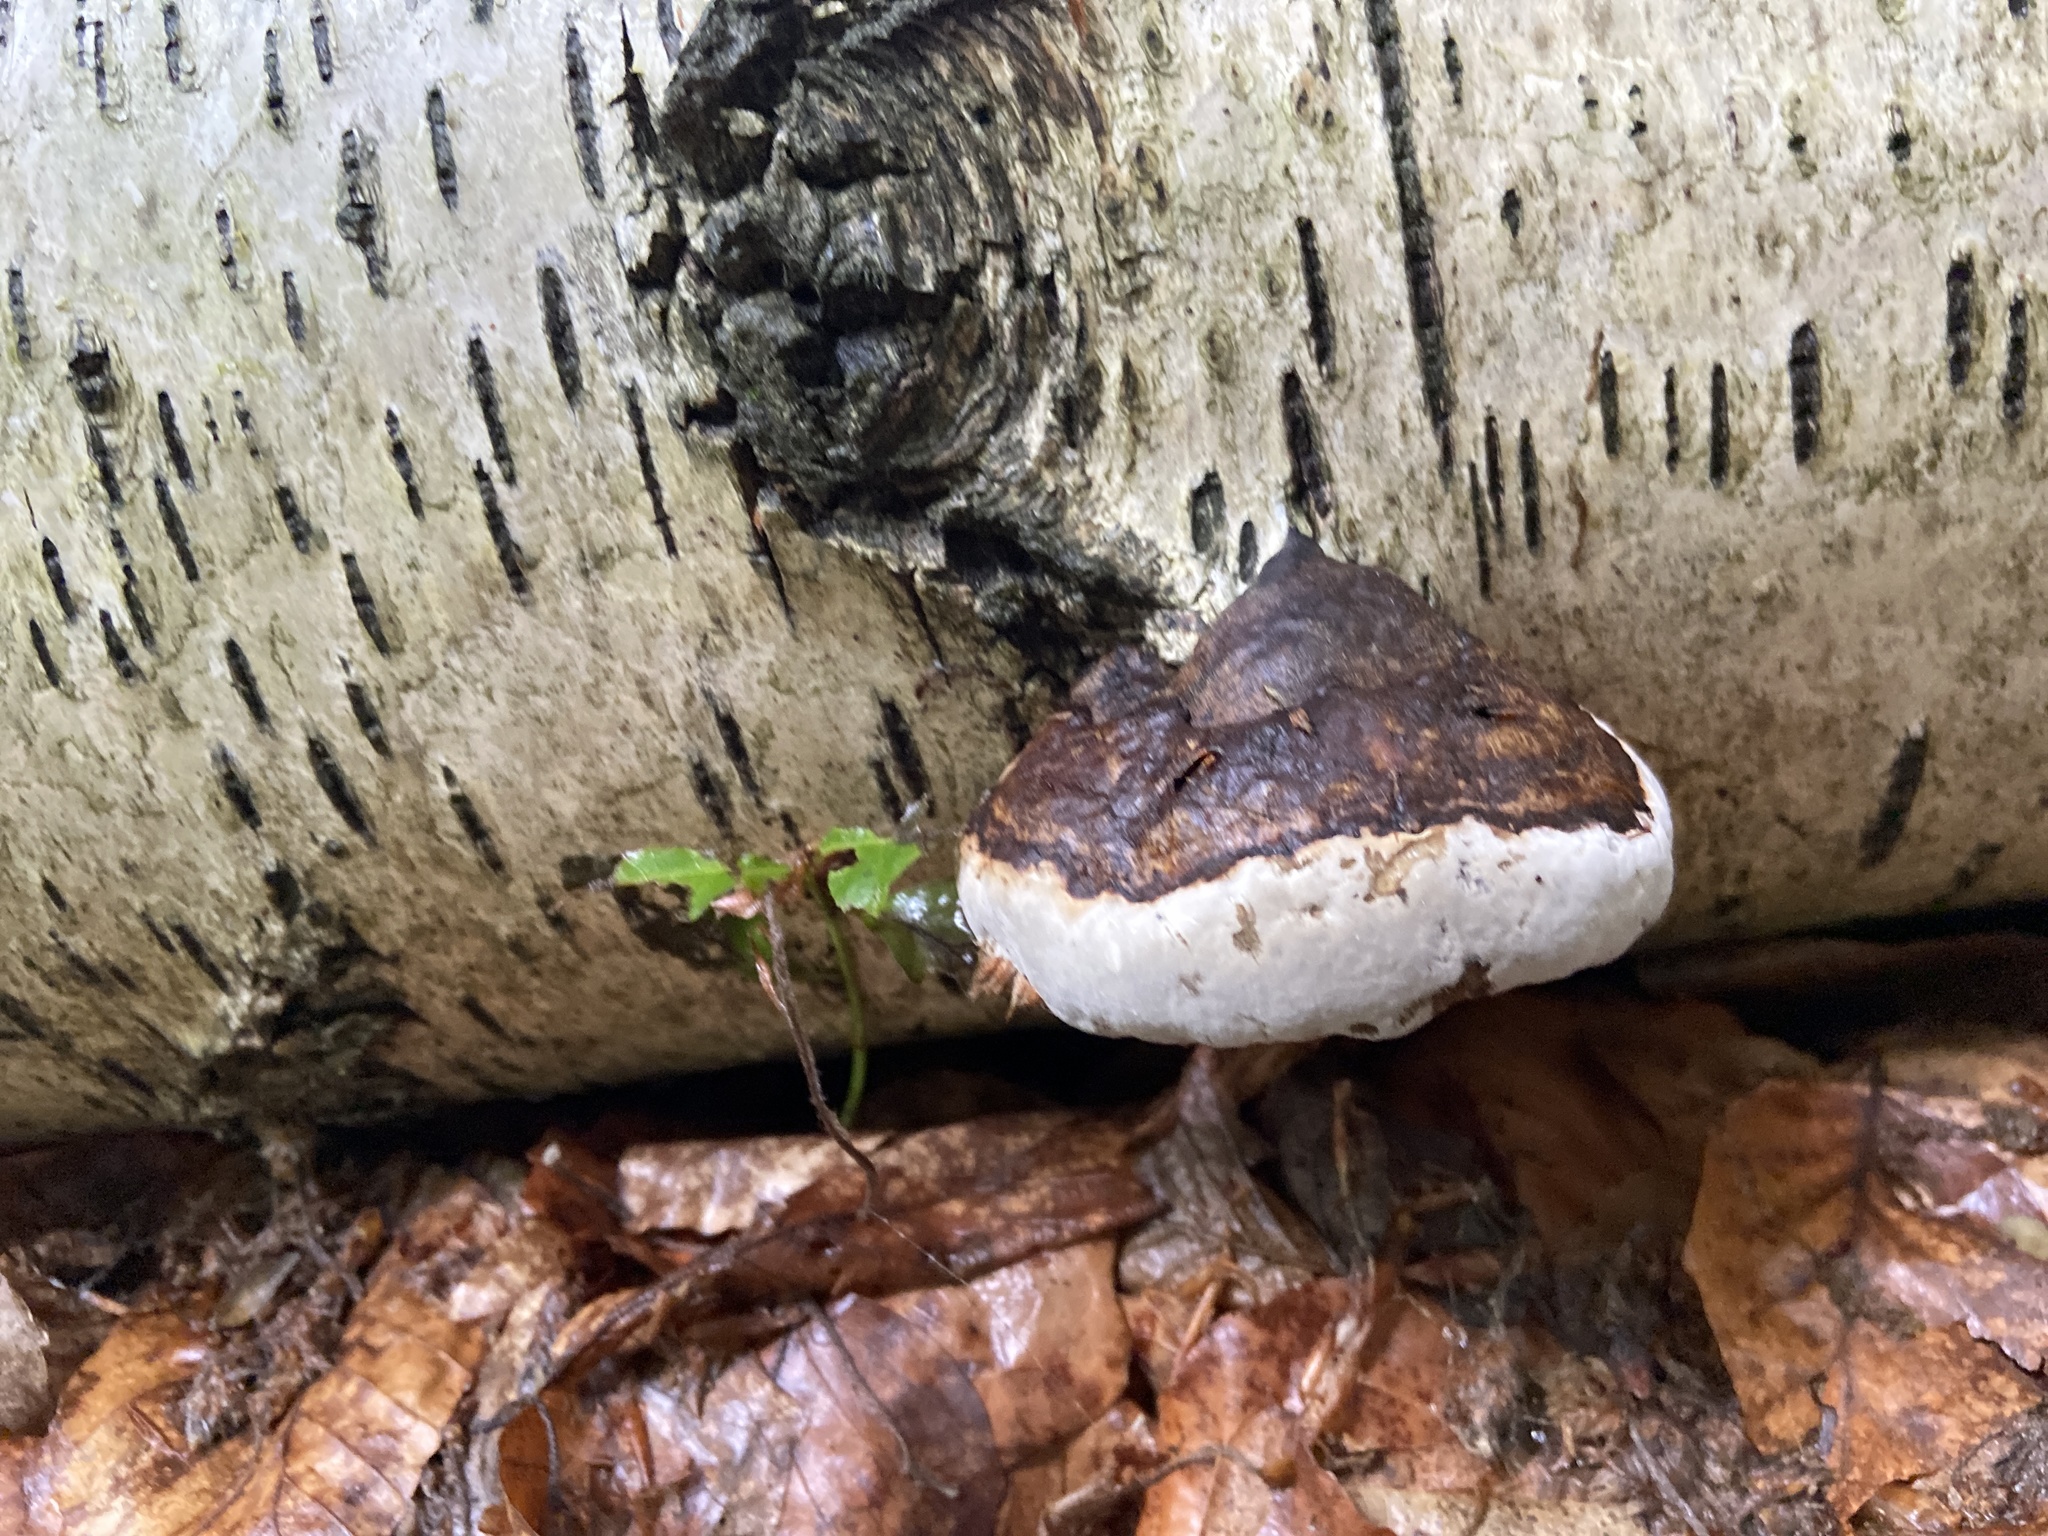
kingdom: Fungi
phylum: Basidiomycota
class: Agaricomycetes
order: Polyporales
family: Fomitopsidaceae
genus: Fomitopsis
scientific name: Fomitopsis pinicola
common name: Red-belted bracket
